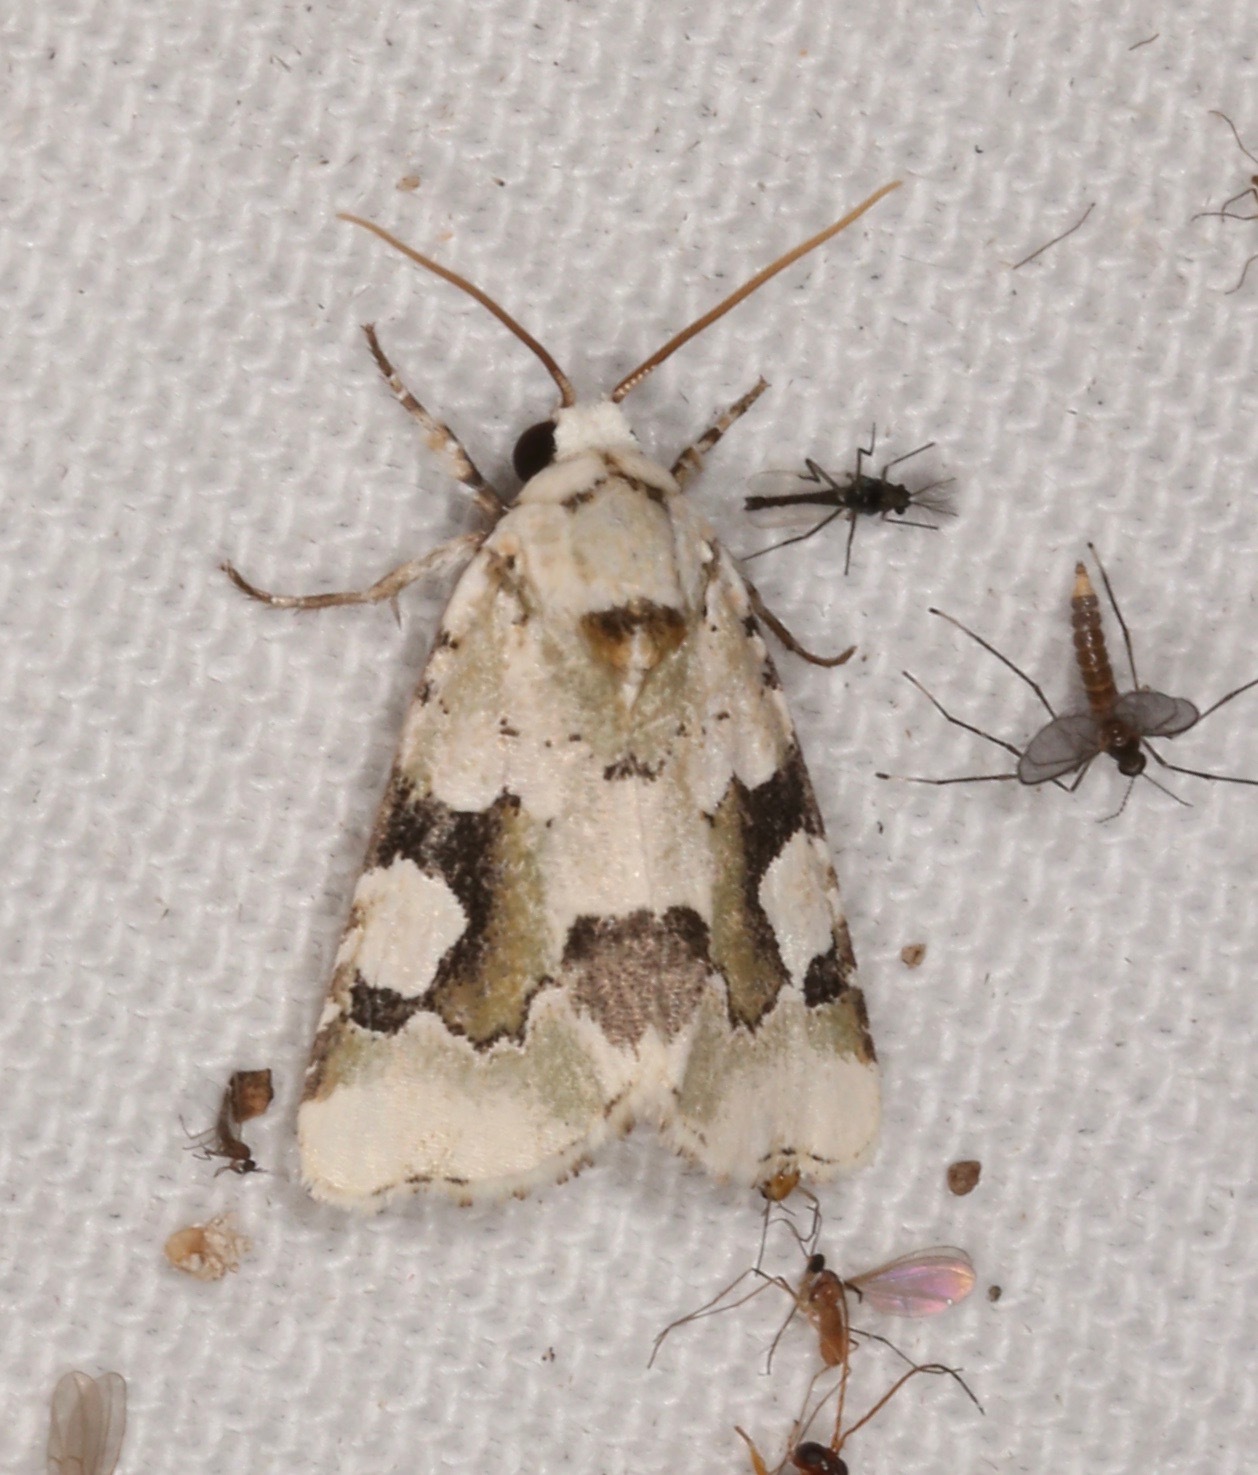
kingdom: Animalia
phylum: Arthropoda
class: Insecta
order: Lepidoptera
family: Noctuidae
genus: Emarginea
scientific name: Emarginea percara
